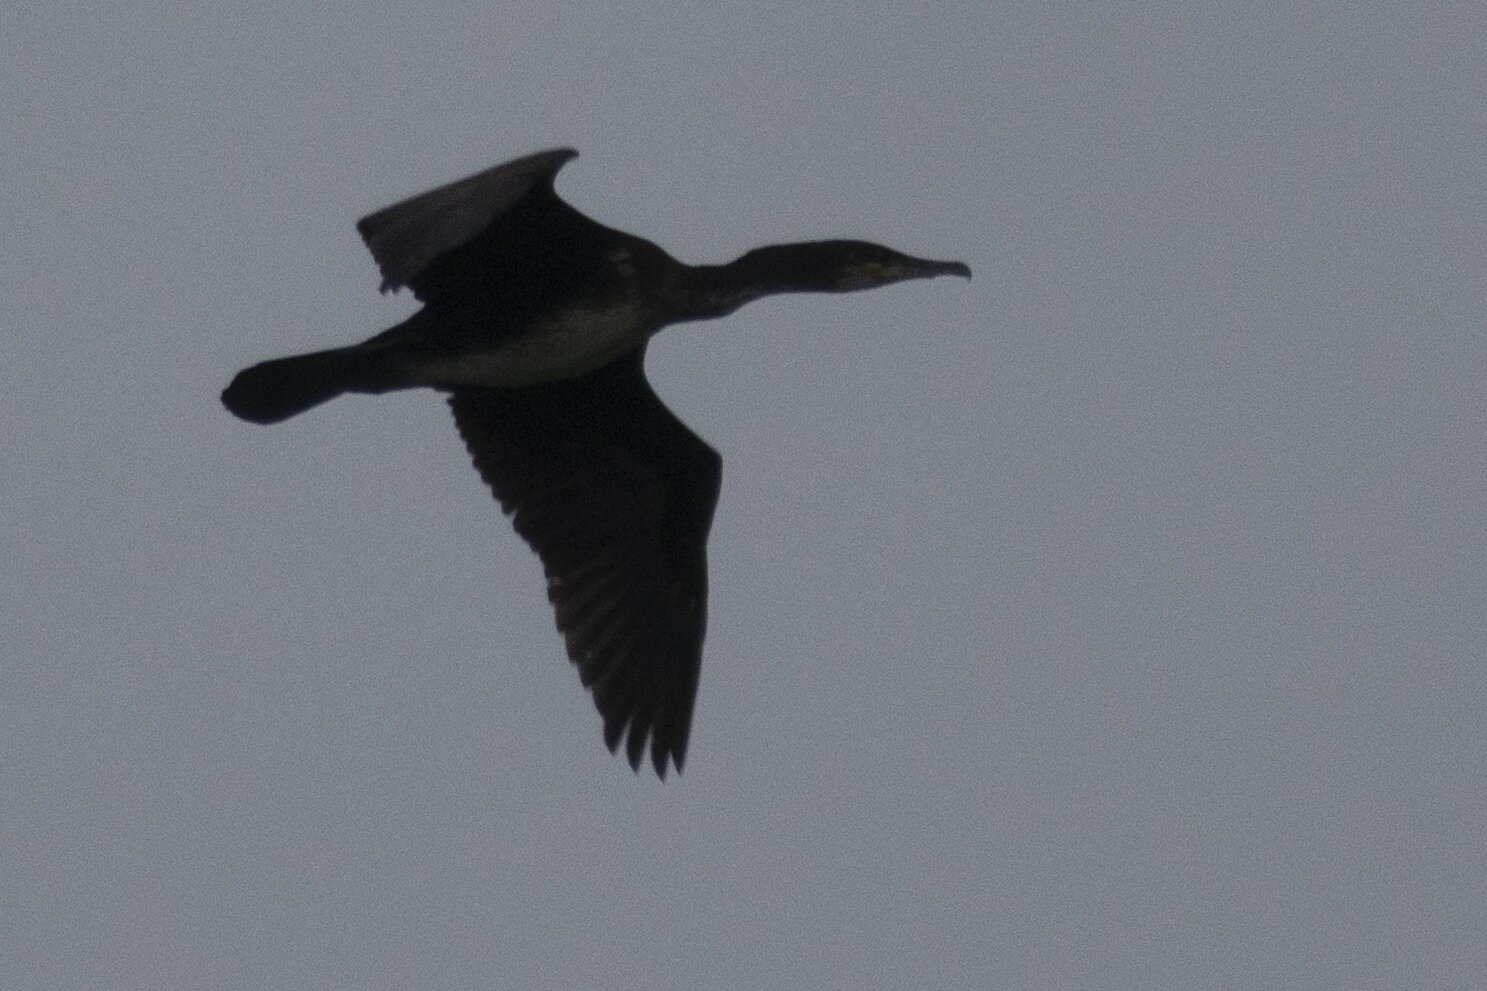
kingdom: Animalia
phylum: Chordata
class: Aves
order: Suliformes
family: Phalacrocoracidae
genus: Phalacrocorax
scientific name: Phalacrocorax carbo
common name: Great cormorant
